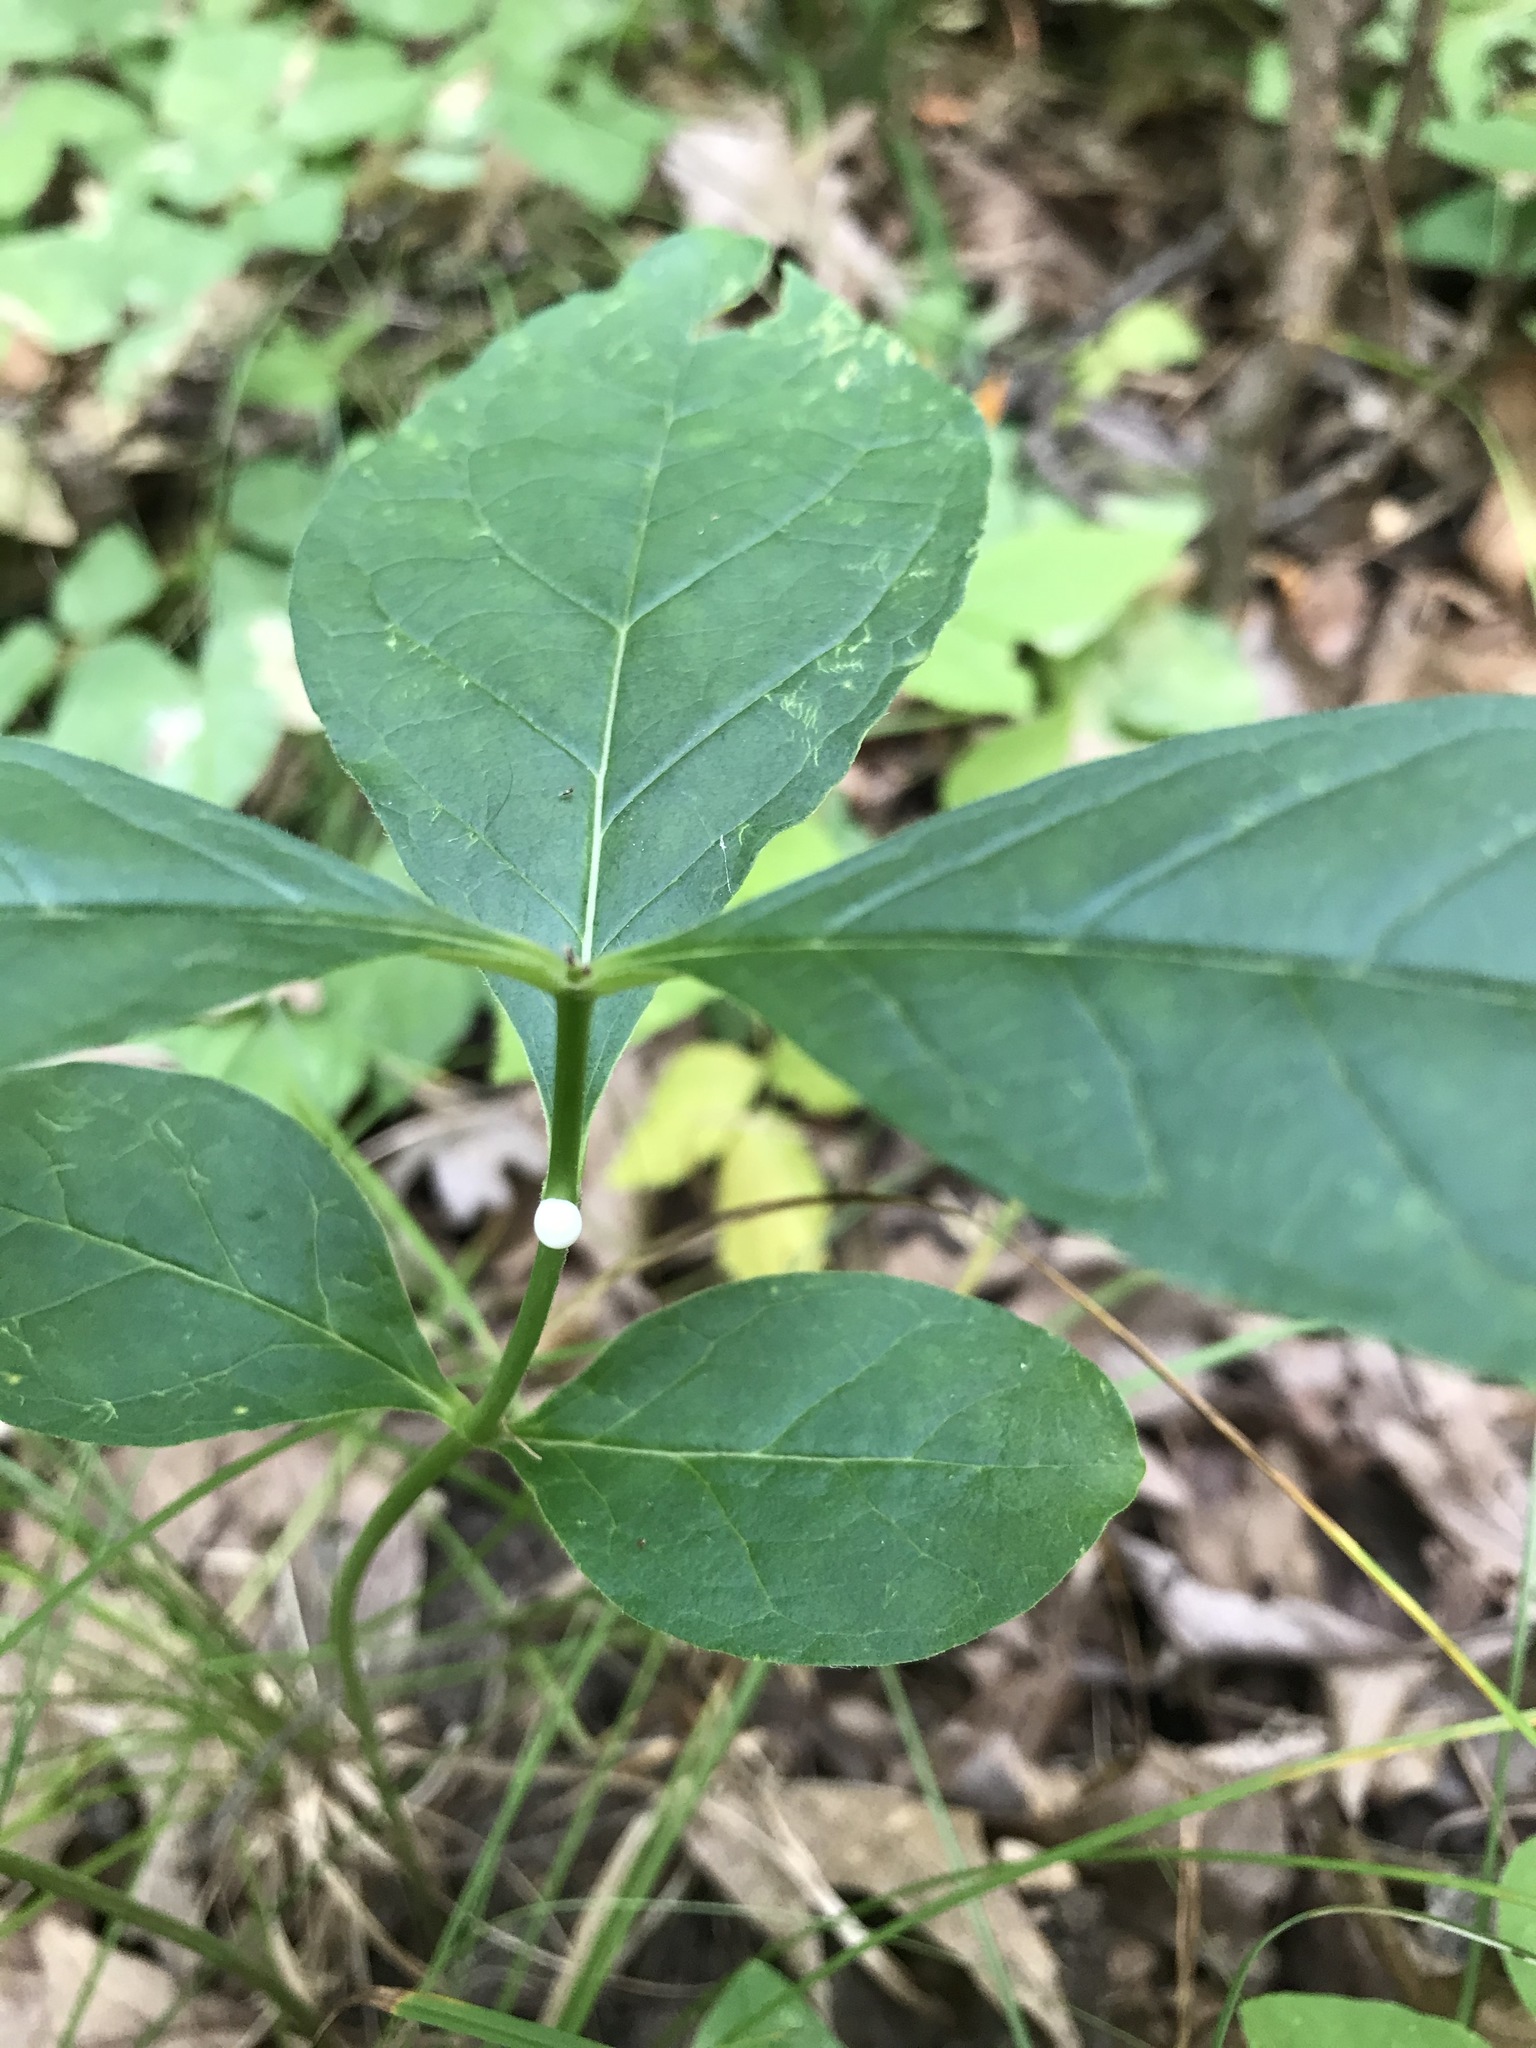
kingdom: Plantae
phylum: Tracheophyta
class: Magnoliopsida
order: Gentianales
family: Apocynaceae
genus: Asclepias
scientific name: Asclepias exaltata
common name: Poke milkweed
